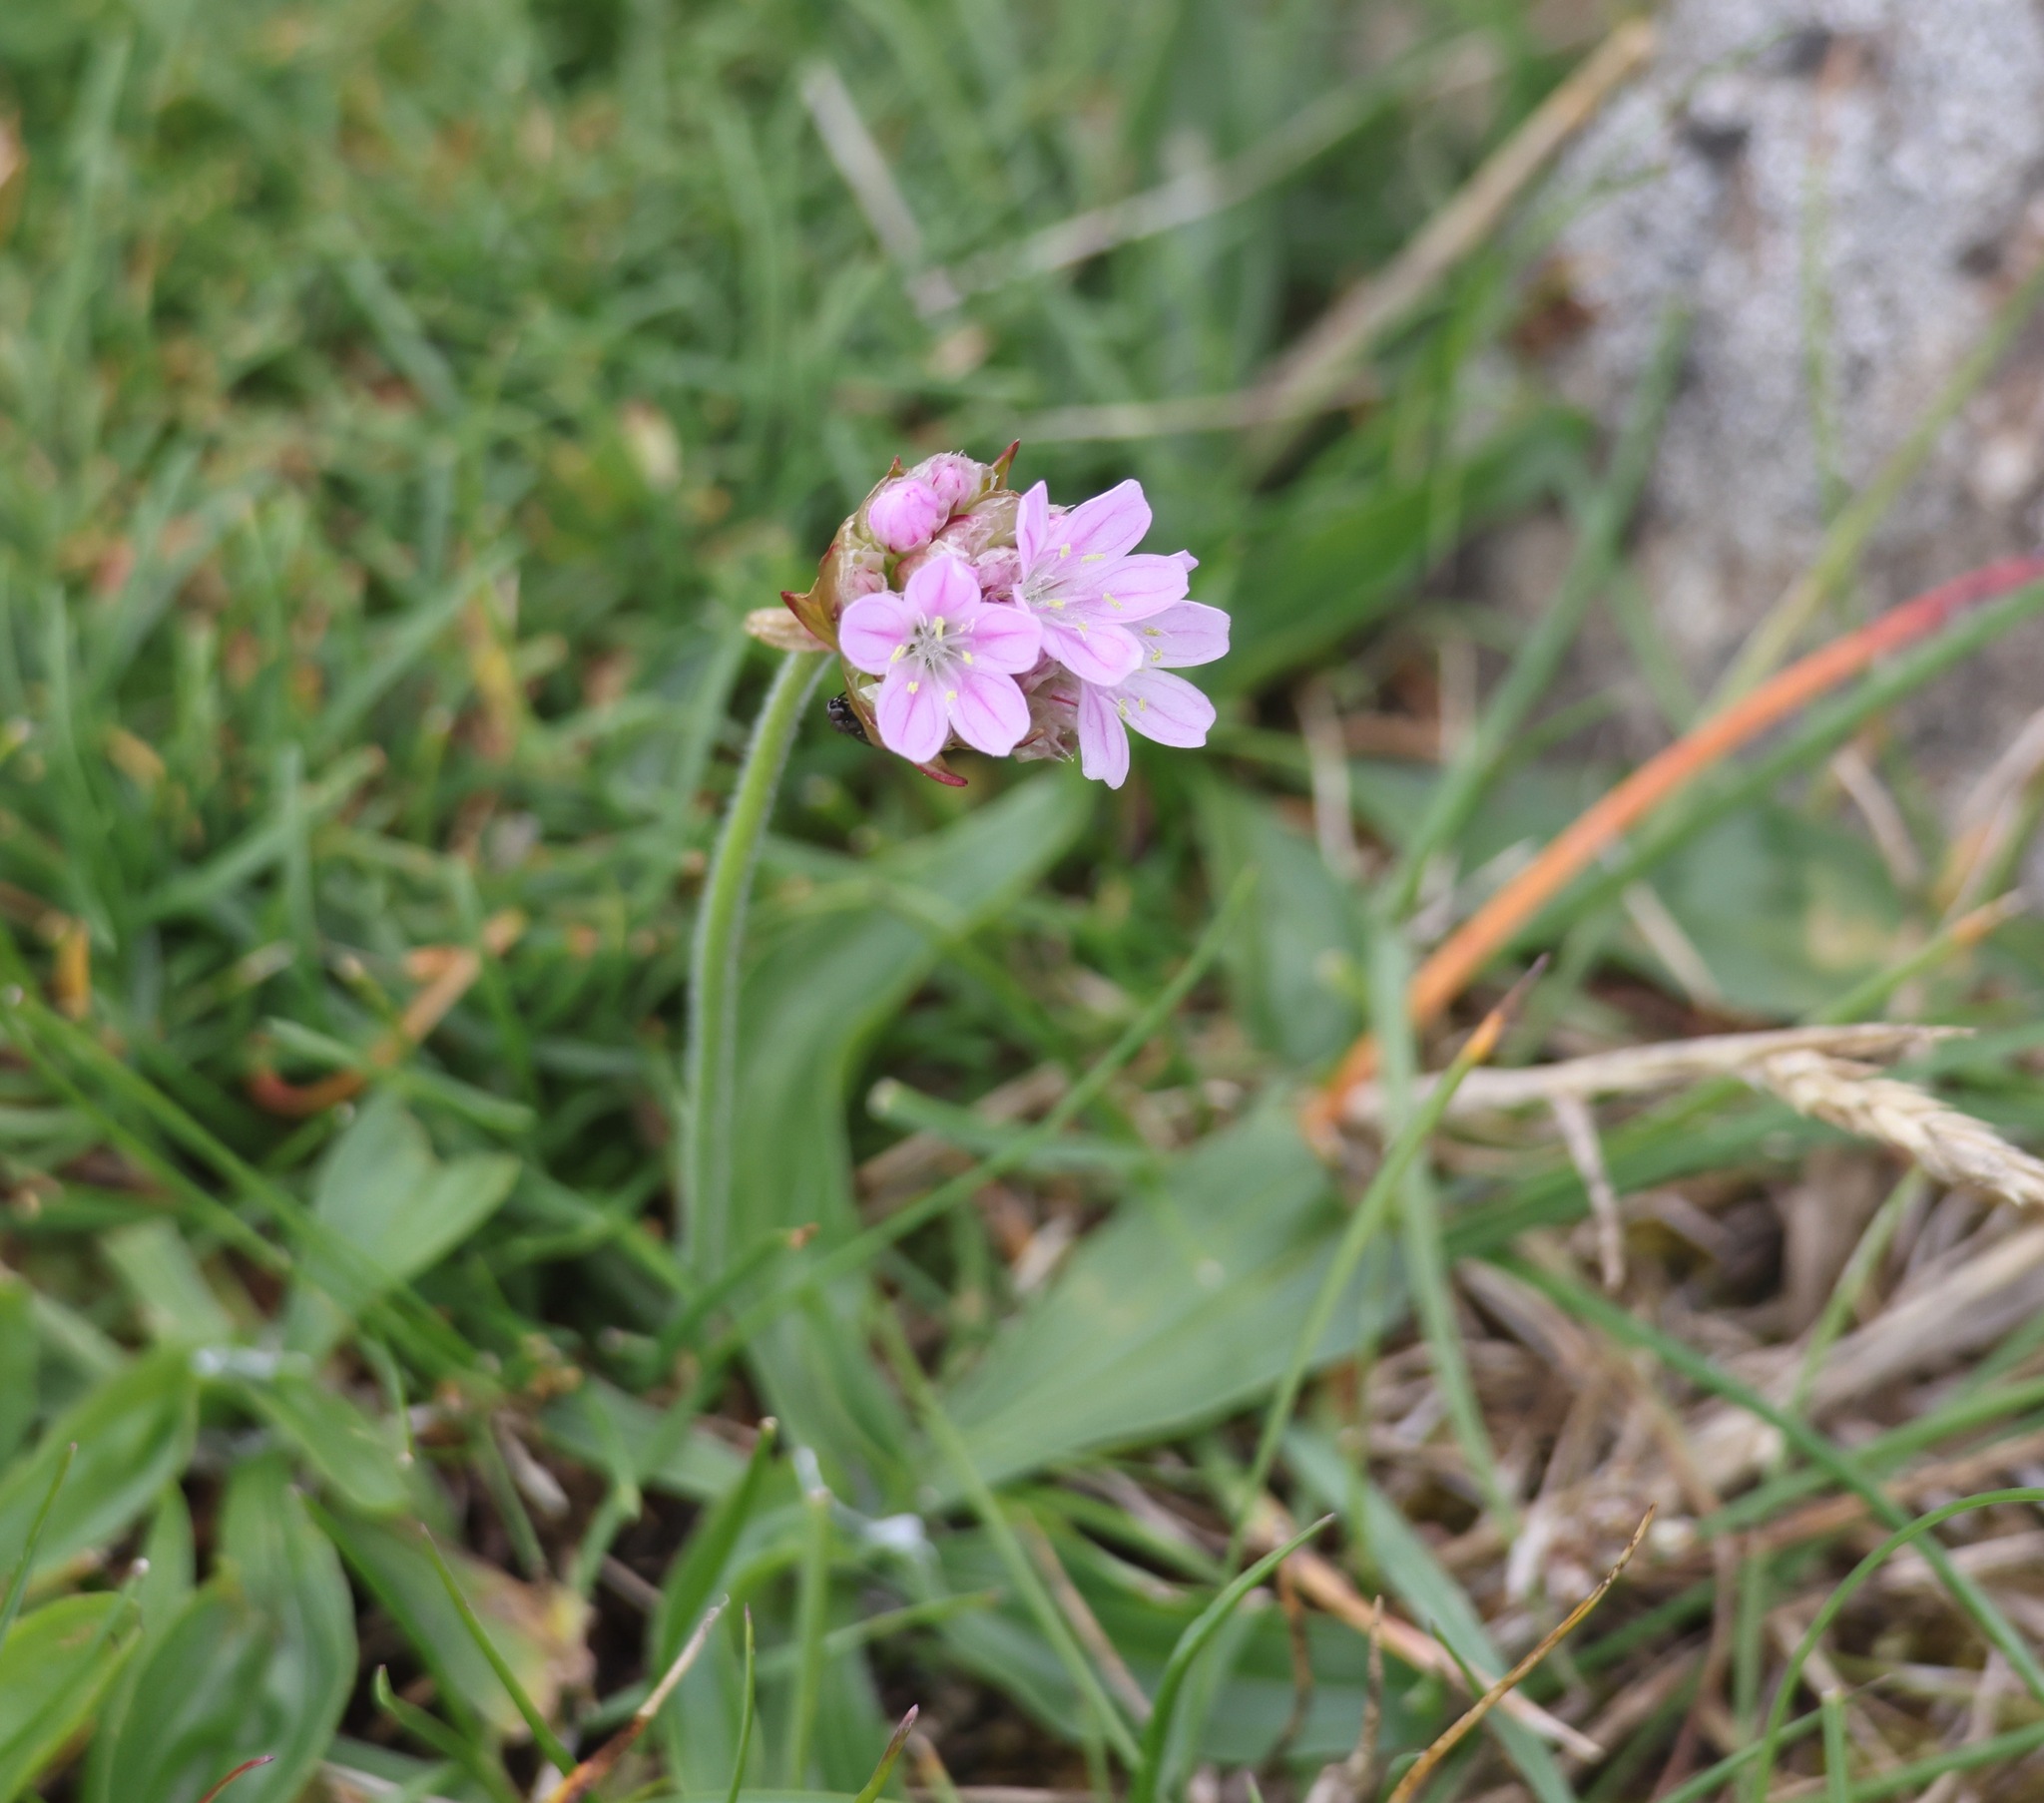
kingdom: Plantae
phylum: Tracheophyta
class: Magnoliopsida
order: Caryophyllales
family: Plumbaginaceae
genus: Armeria
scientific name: Armeria maritima
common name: Thrift
